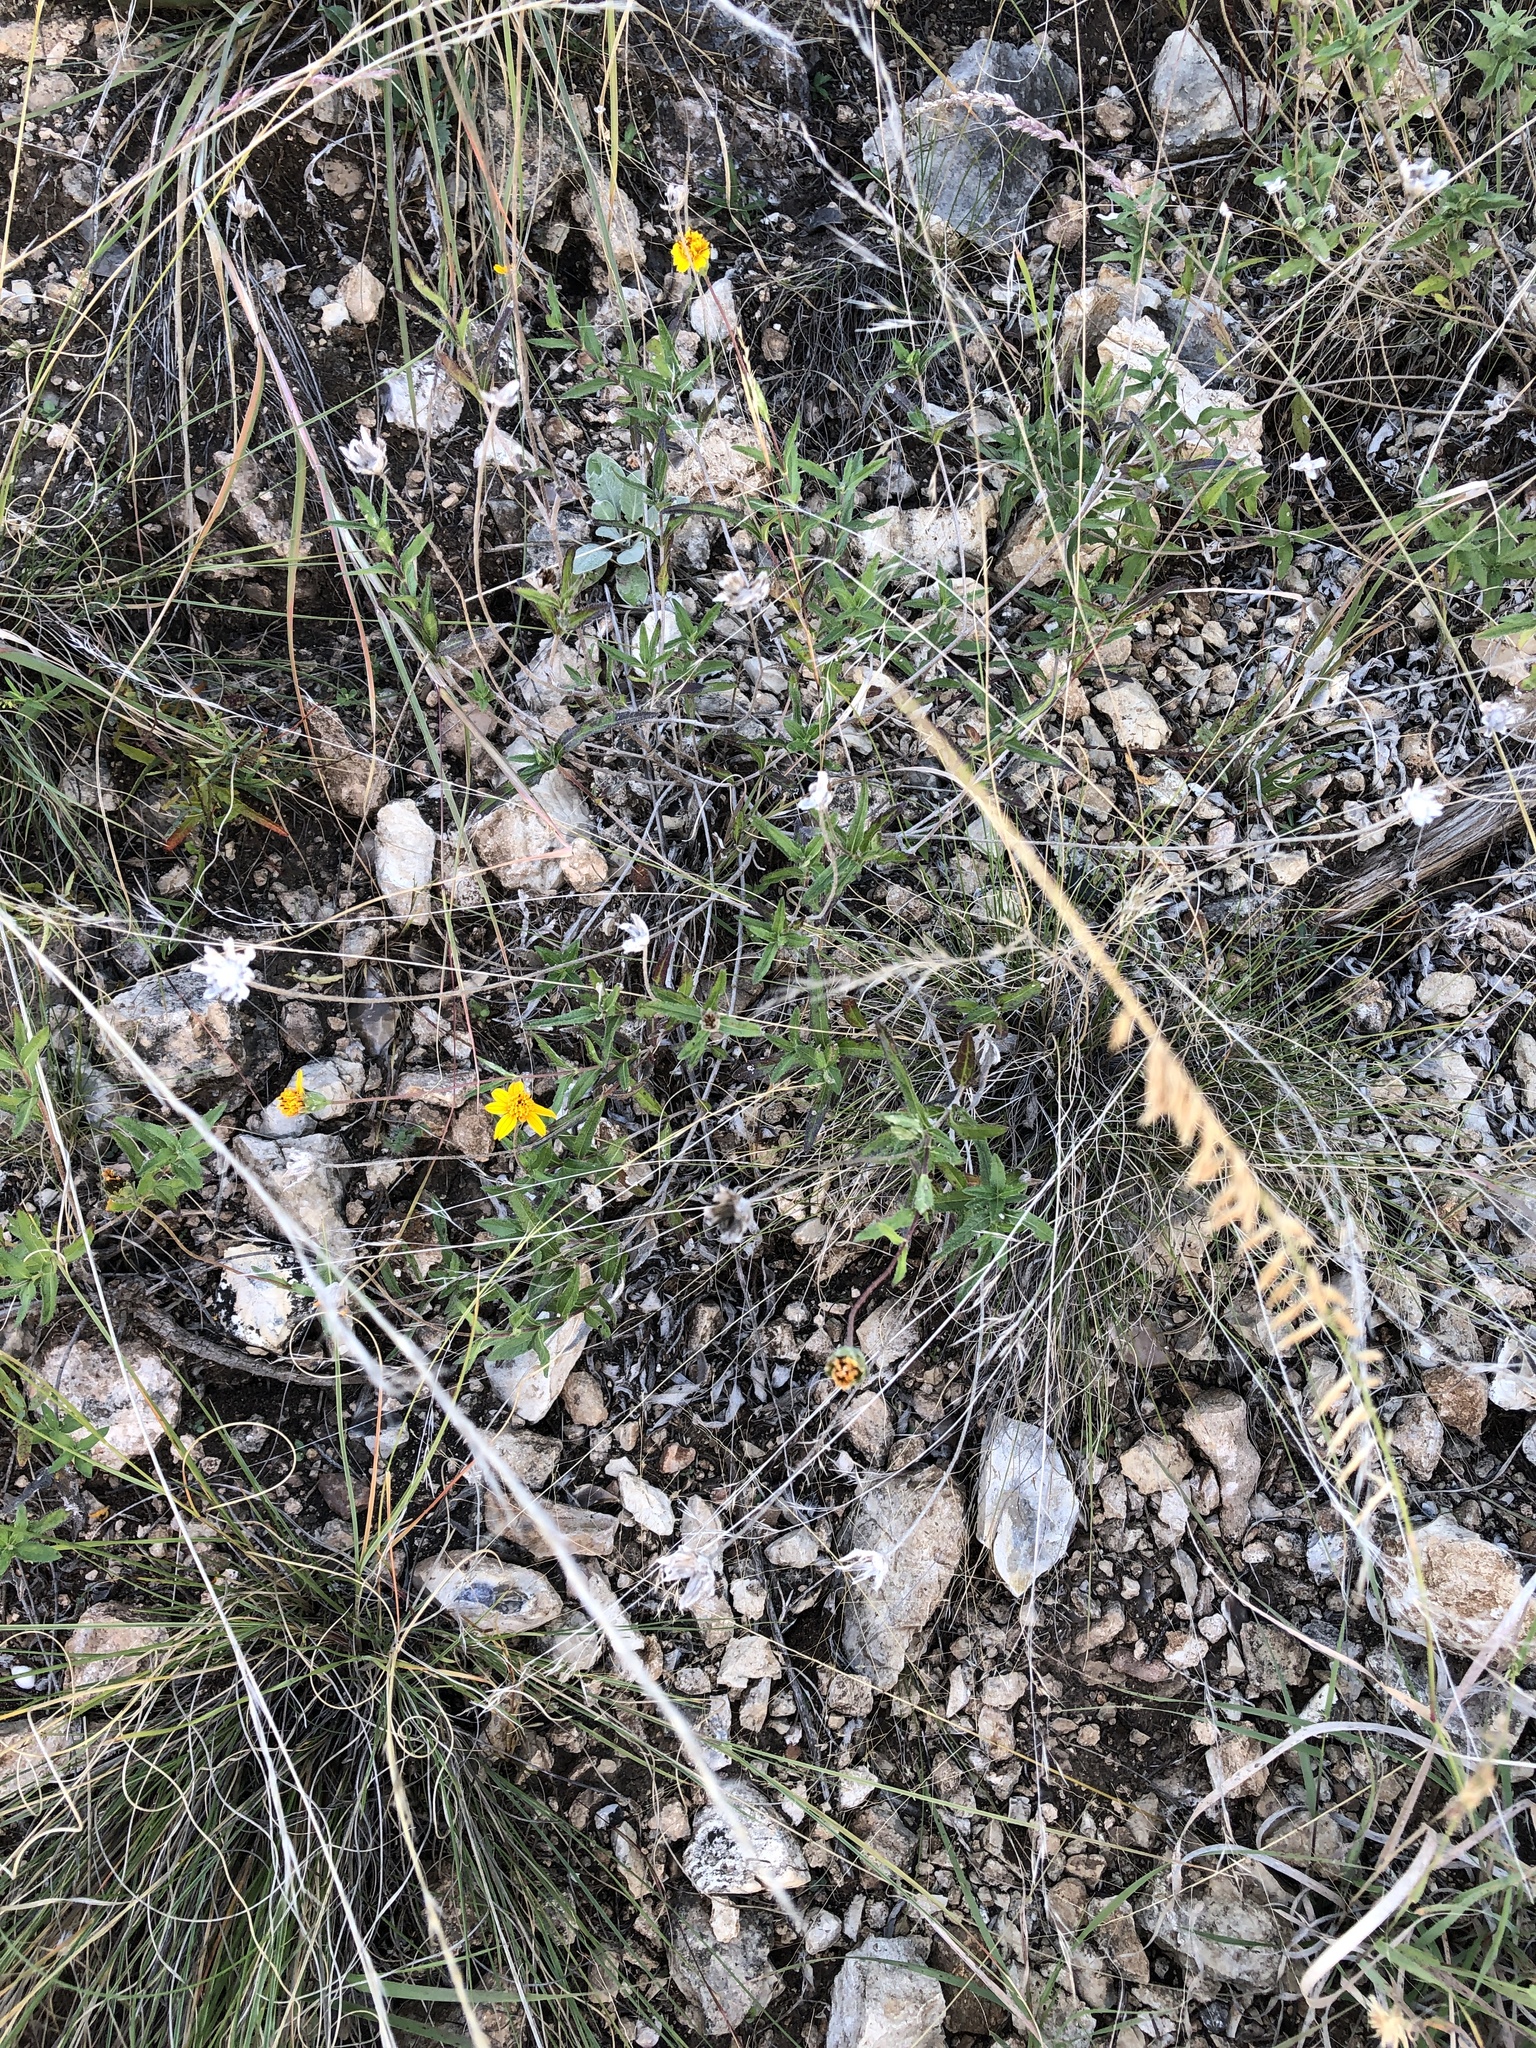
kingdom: Plantae
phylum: Tracheophyta
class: Magnoliopsida
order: Asterales
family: Asteraceae
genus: Wedelia
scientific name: Wedelia acapulcensis
